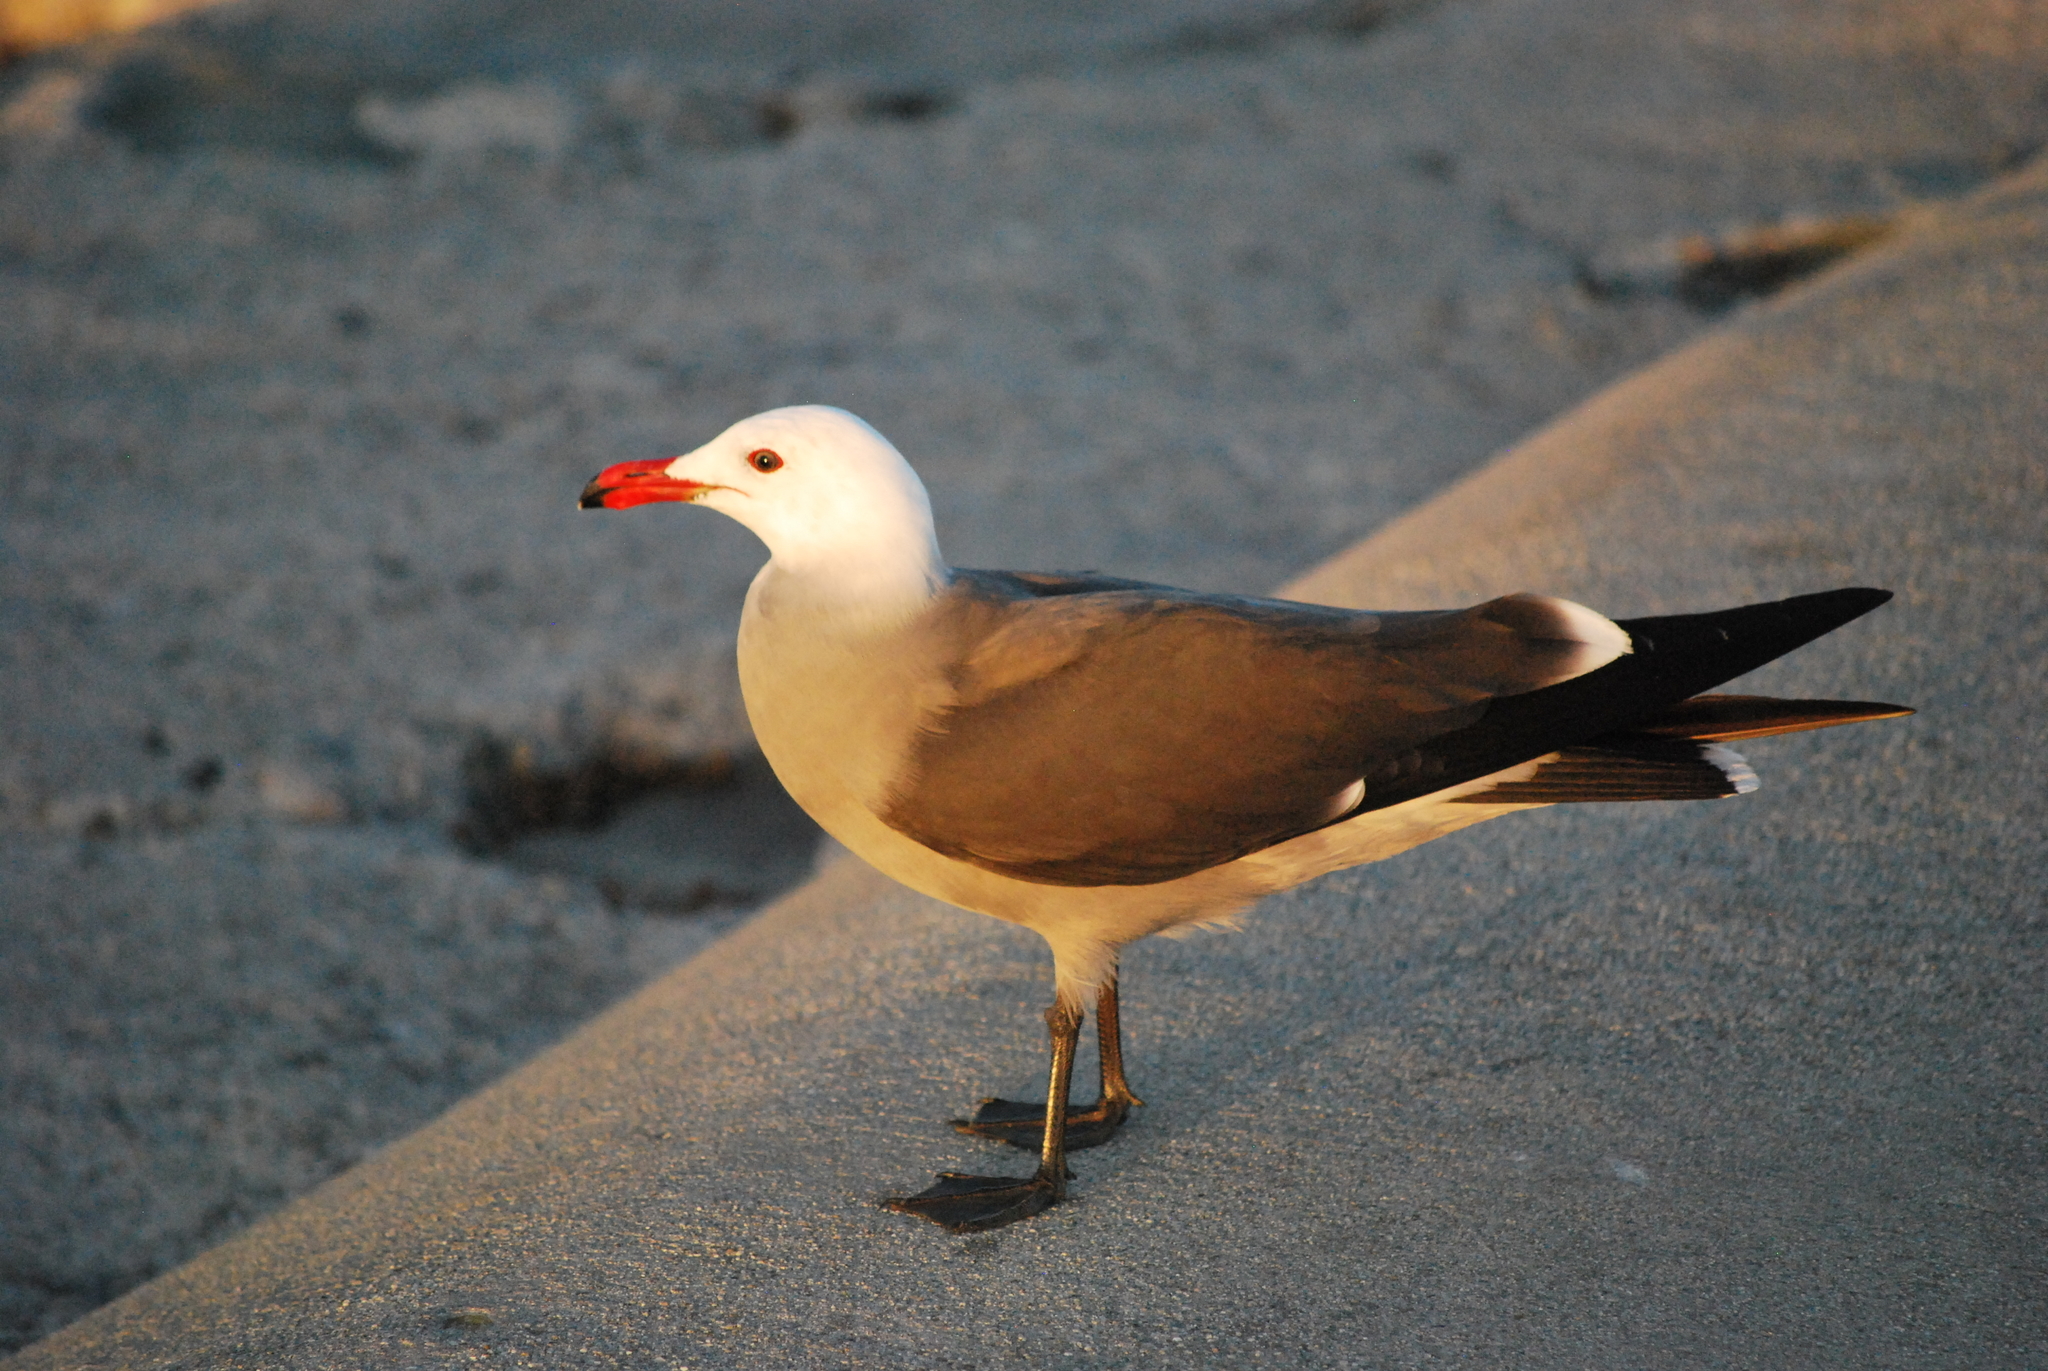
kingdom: Animalia
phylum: Chordata
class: Aves
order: Charadriiformes
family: Laridae
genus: Larus
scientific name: Larus heermanni
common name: Heermann's gull
